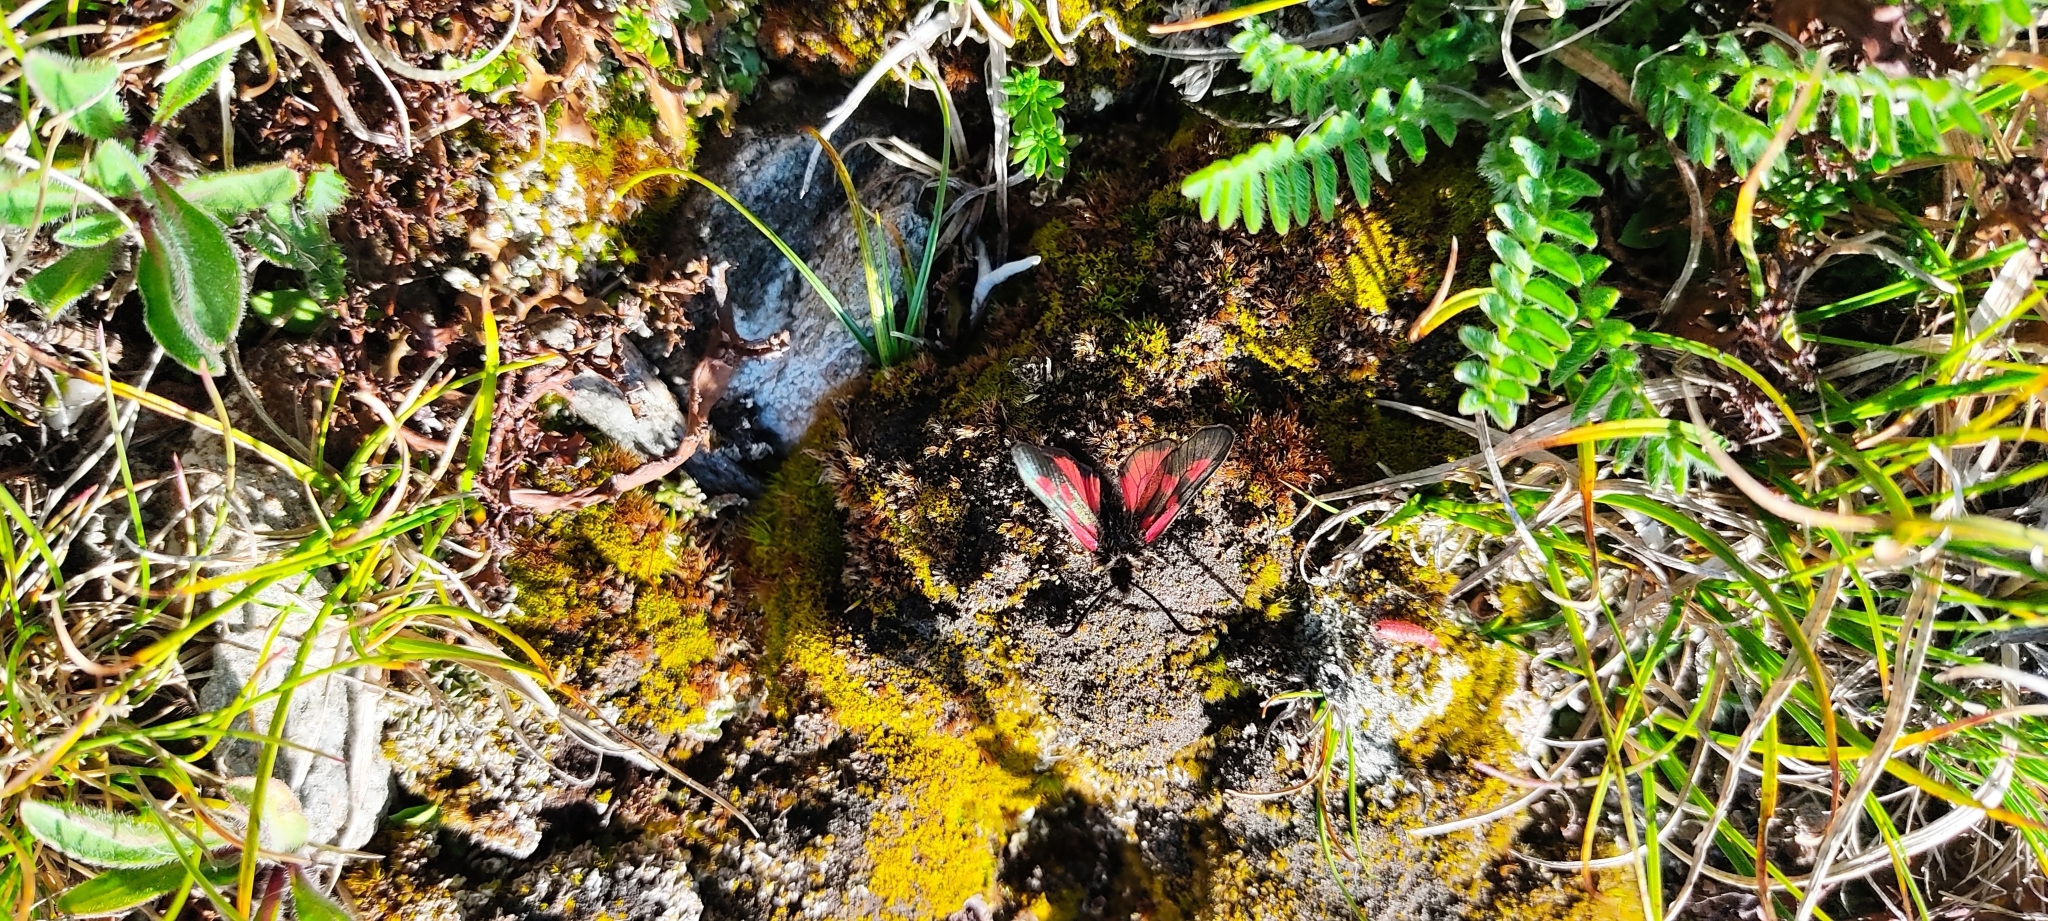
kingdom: Animalia
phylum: Arthropoda
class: Insecta
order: Lepidoptera
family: Zygaenidae
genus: Zygaena
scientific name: Zygaena exulans
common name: Scotch burnet
